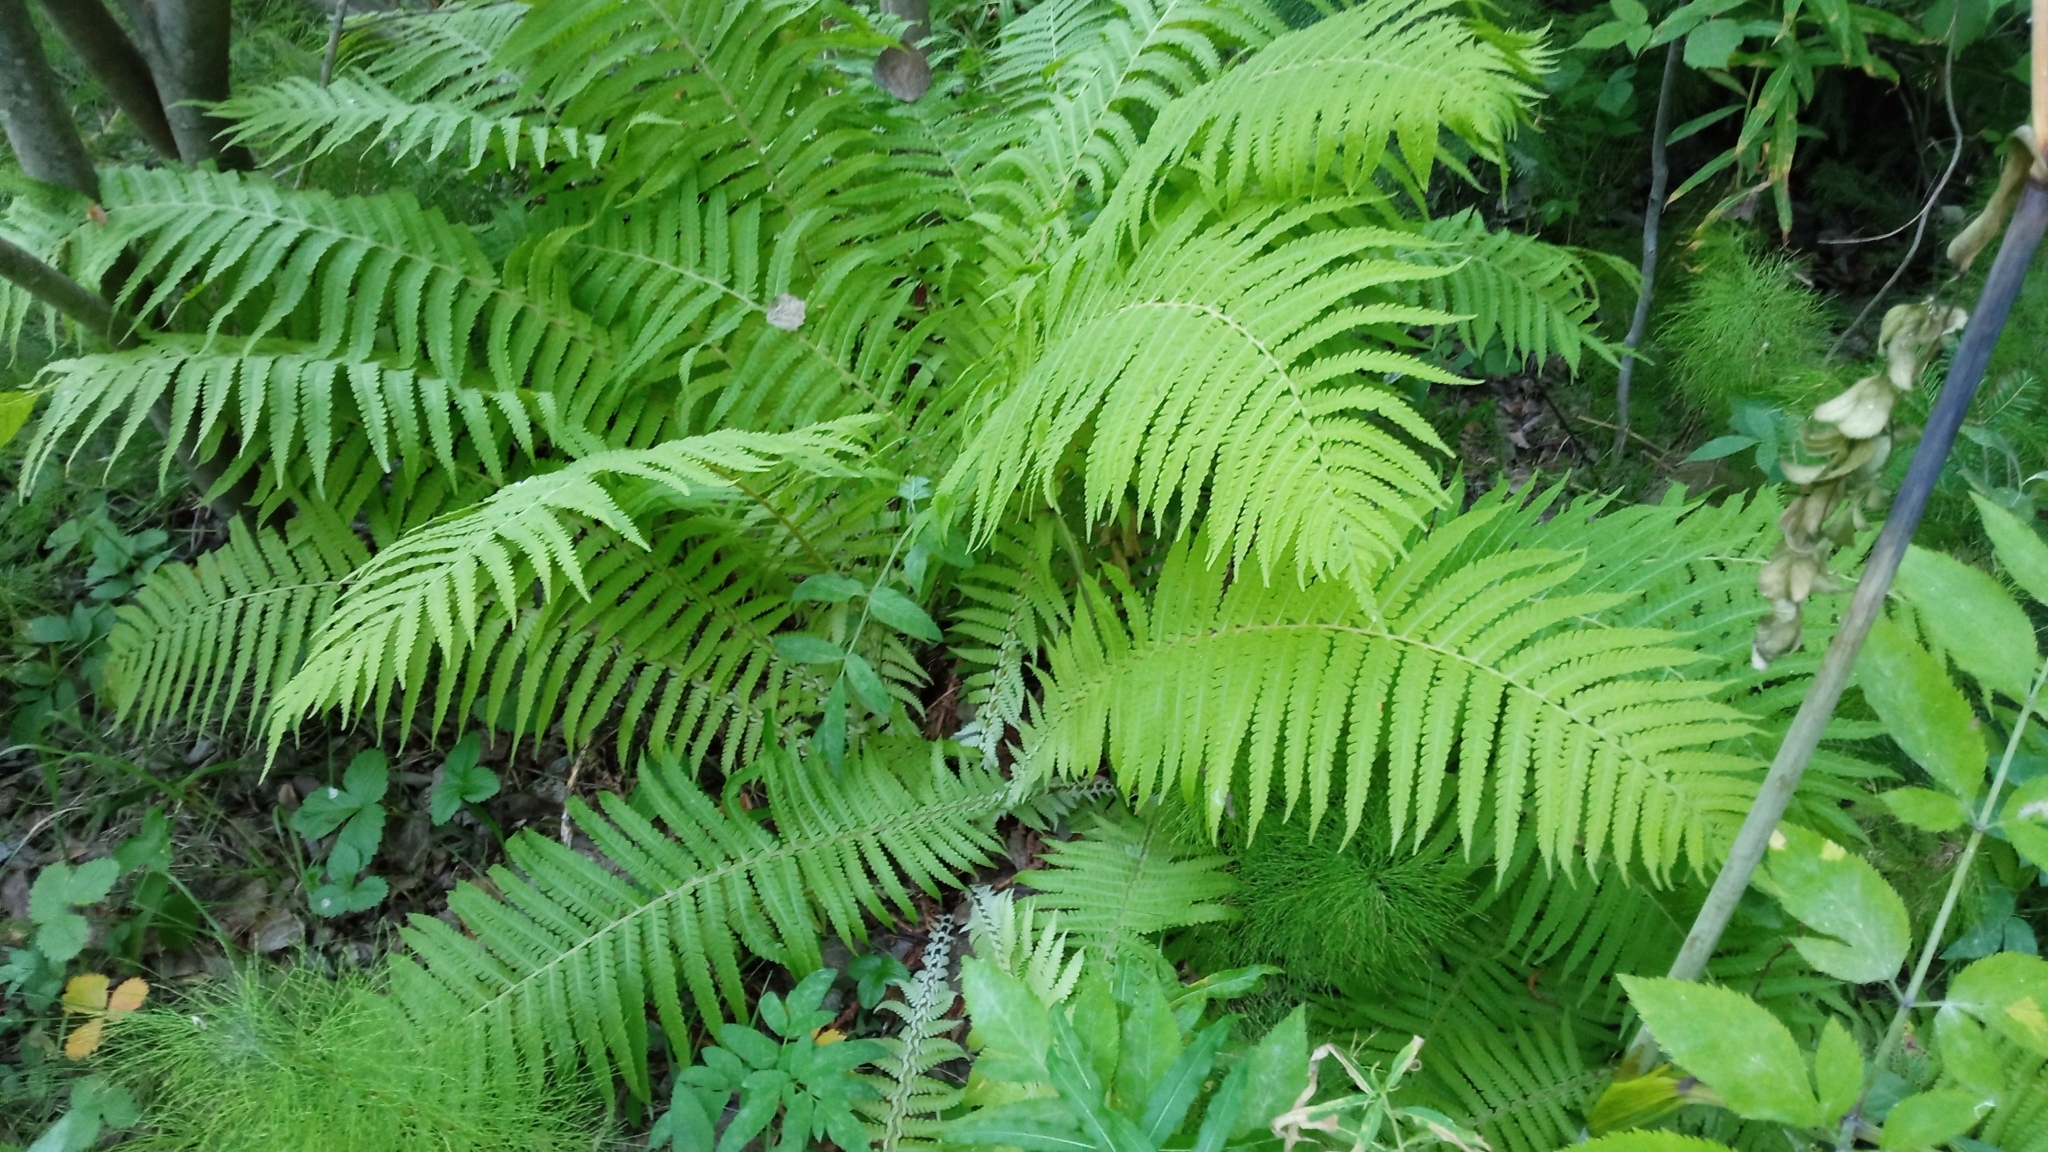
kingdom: Plantae
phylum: Tracheophyta
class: Polypodiopsida
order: Polypodiales
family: Onocleaceae
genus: Matteuccia
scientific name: Matteuccia struthiopteris
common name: Ostrich fern
